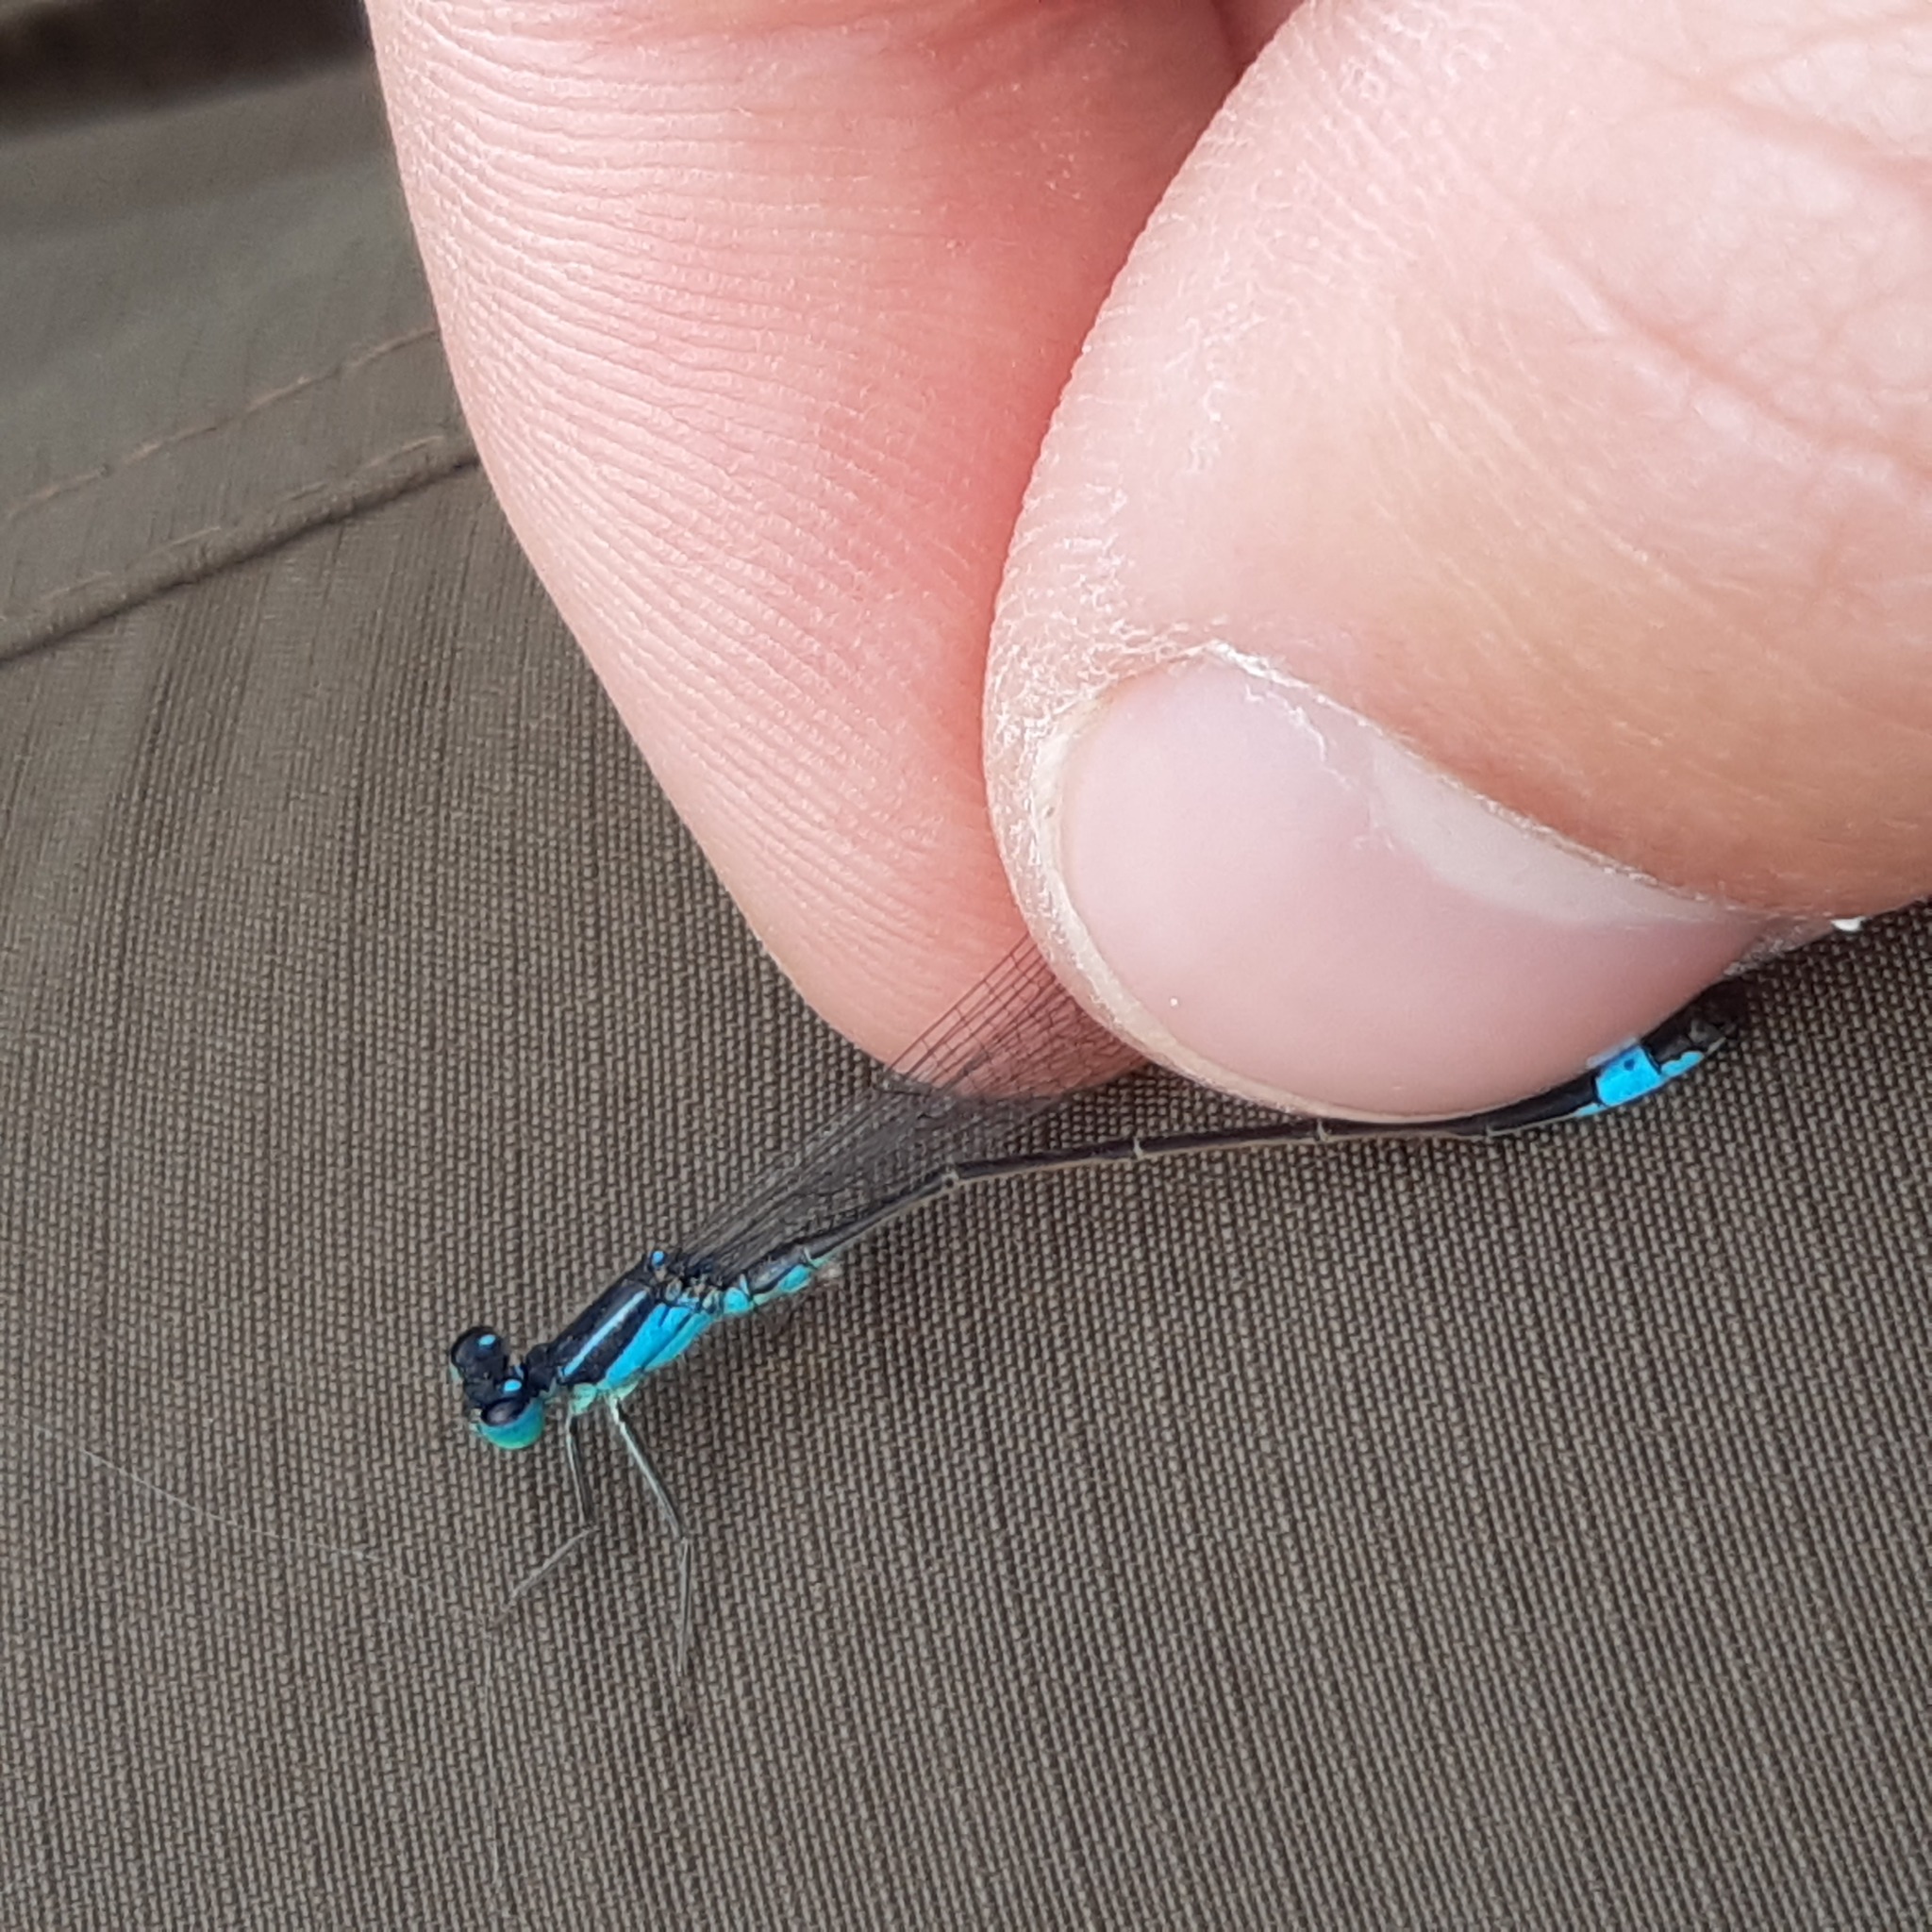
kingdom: Animalia
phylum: Arthropoda
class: Insecta
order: Odonata
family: Coenagrionidae
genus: Ischnura
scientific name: Ischnura elegans
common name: Blue-tailed damselfly
